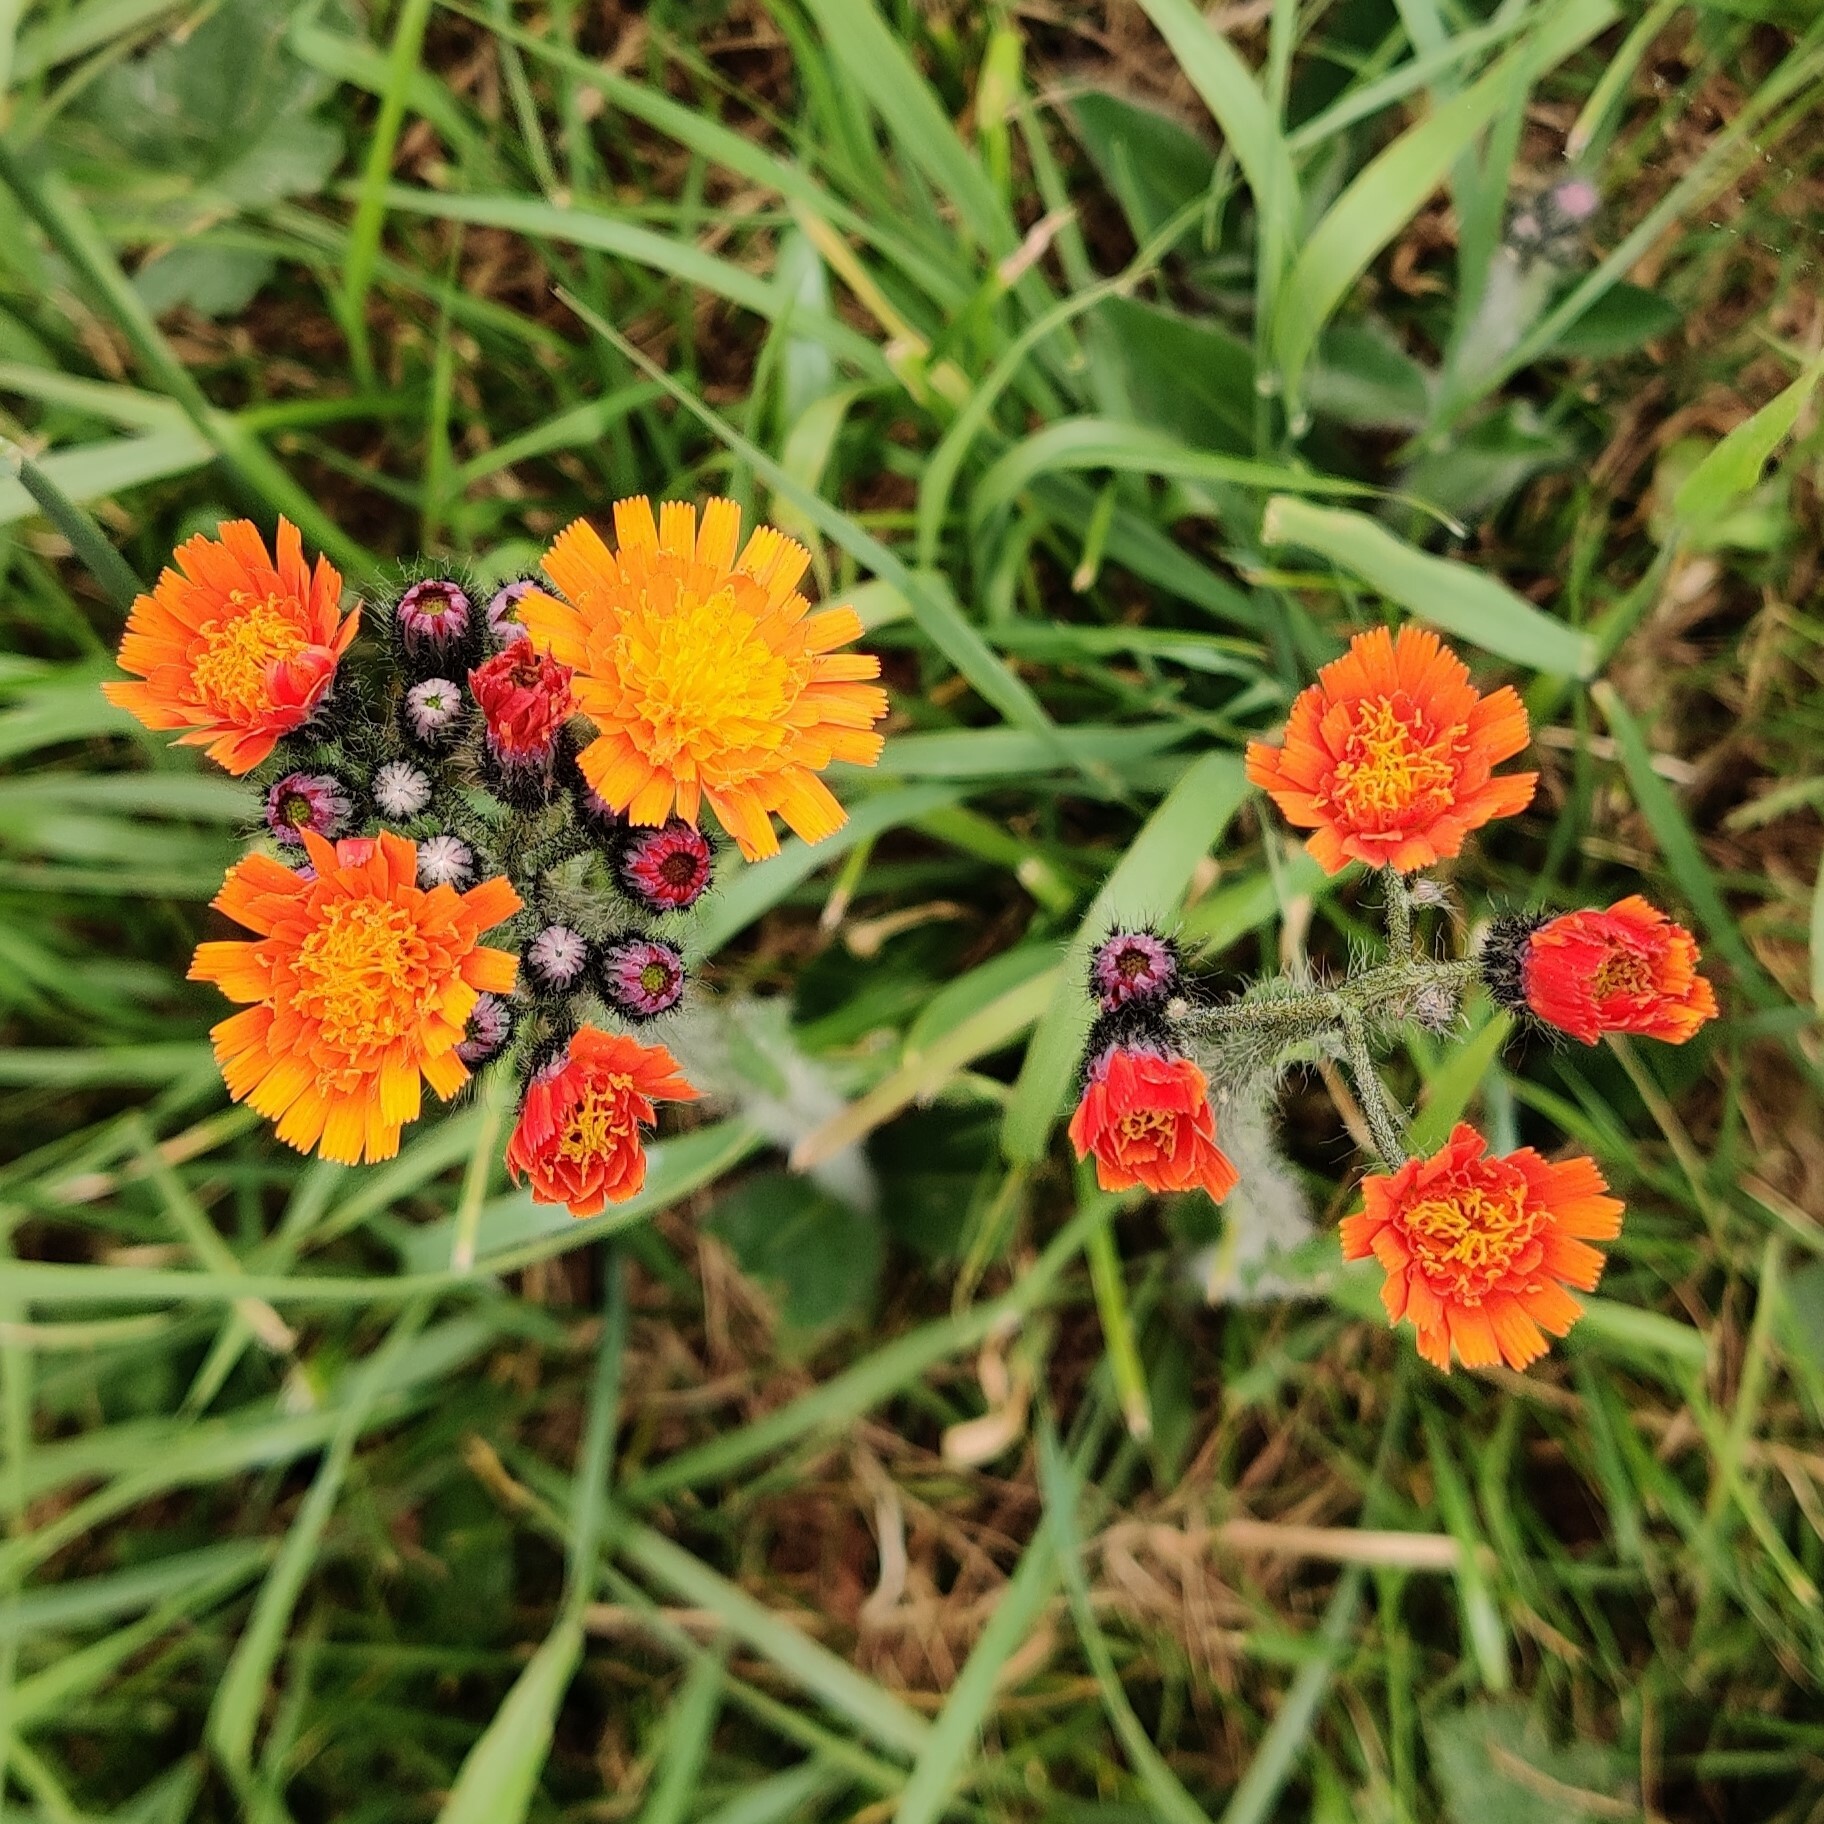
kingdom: Plantae
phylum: Tracheophyta
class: Magnoliopsida
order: Asterales
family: Asteraceae
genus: Pilosella
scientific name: Pilosella aurantiaca
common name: Fox-and-cubs
